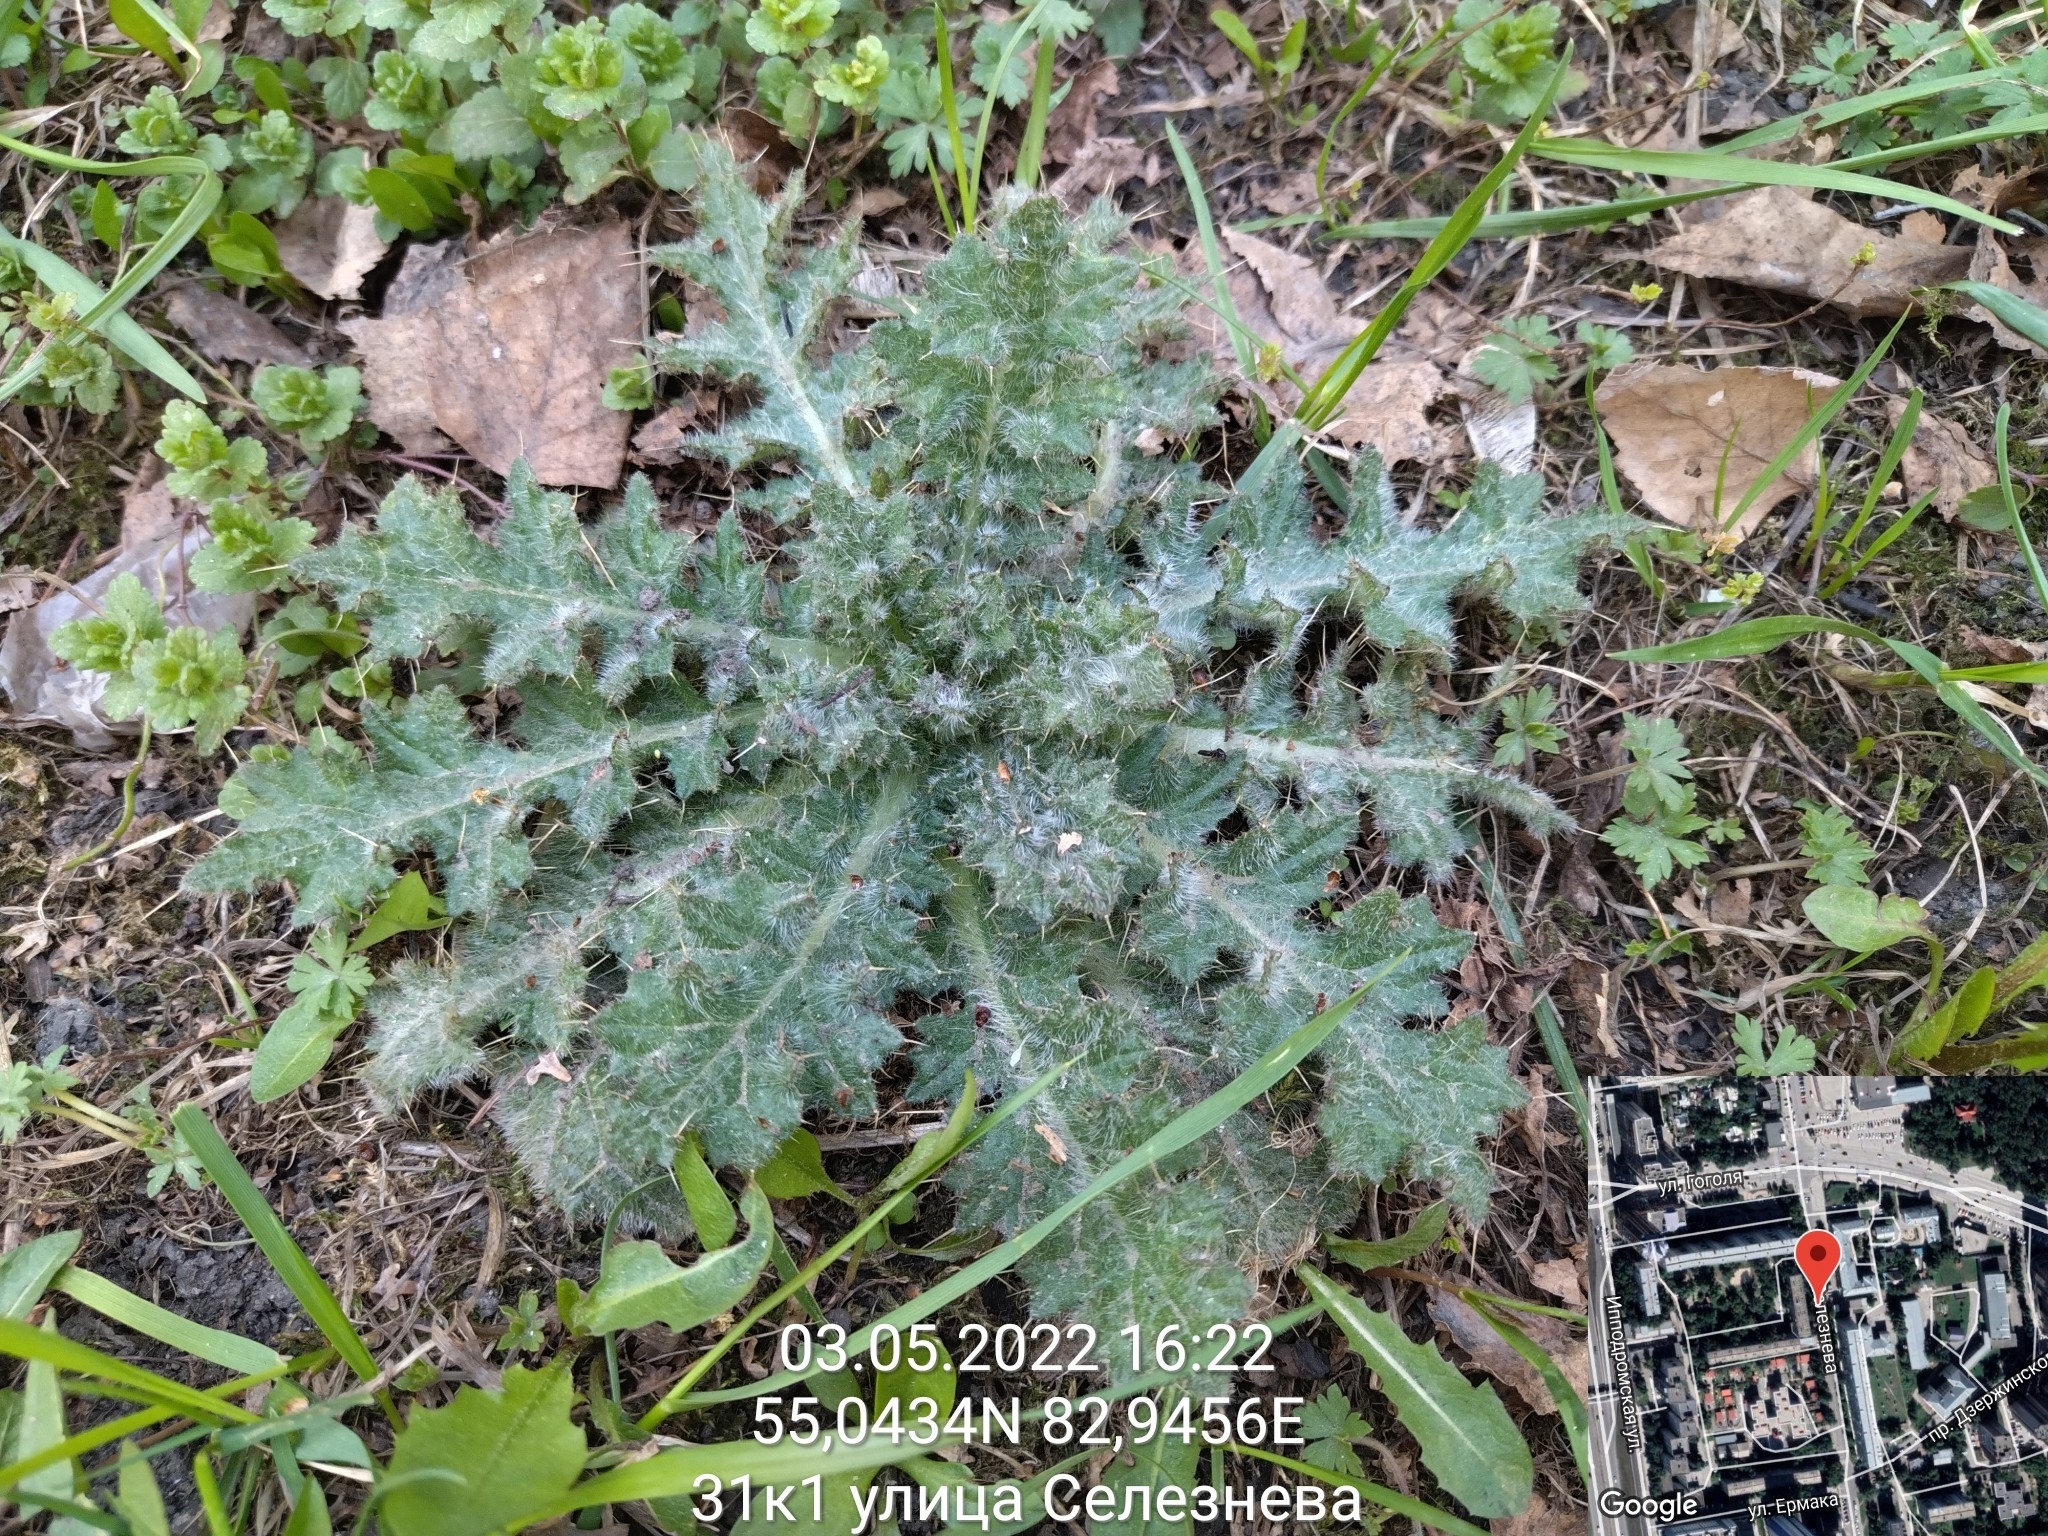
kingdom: Plantae
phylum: Tracheophyta
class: Magnoliopsida
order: Asterales
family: Asteraceae
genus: Cirsium
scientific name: Cirsium vulgare
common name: Bull thistle
